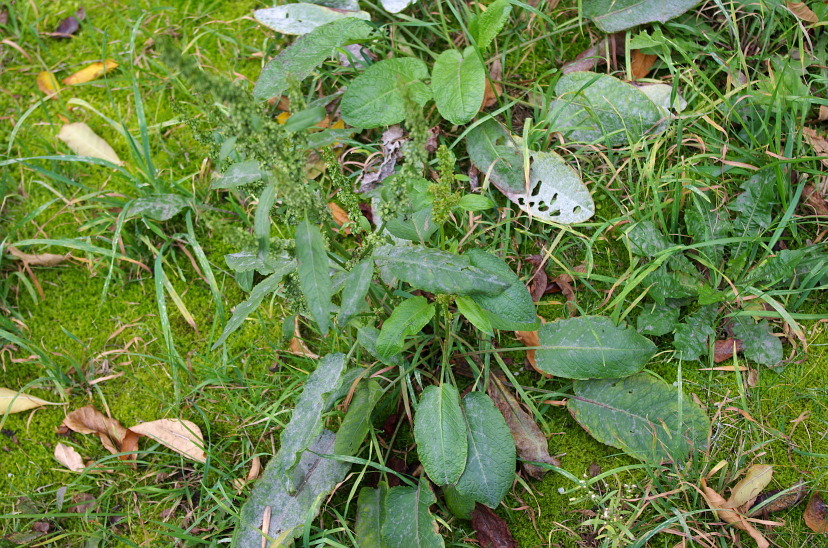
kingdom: Plantae
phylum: Tracheophyta
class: Magnoliopsida
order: Caryophyllales
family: Polygonaceae
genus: Rumex
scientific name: Rumex obtusifolius
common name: Bitter dock
